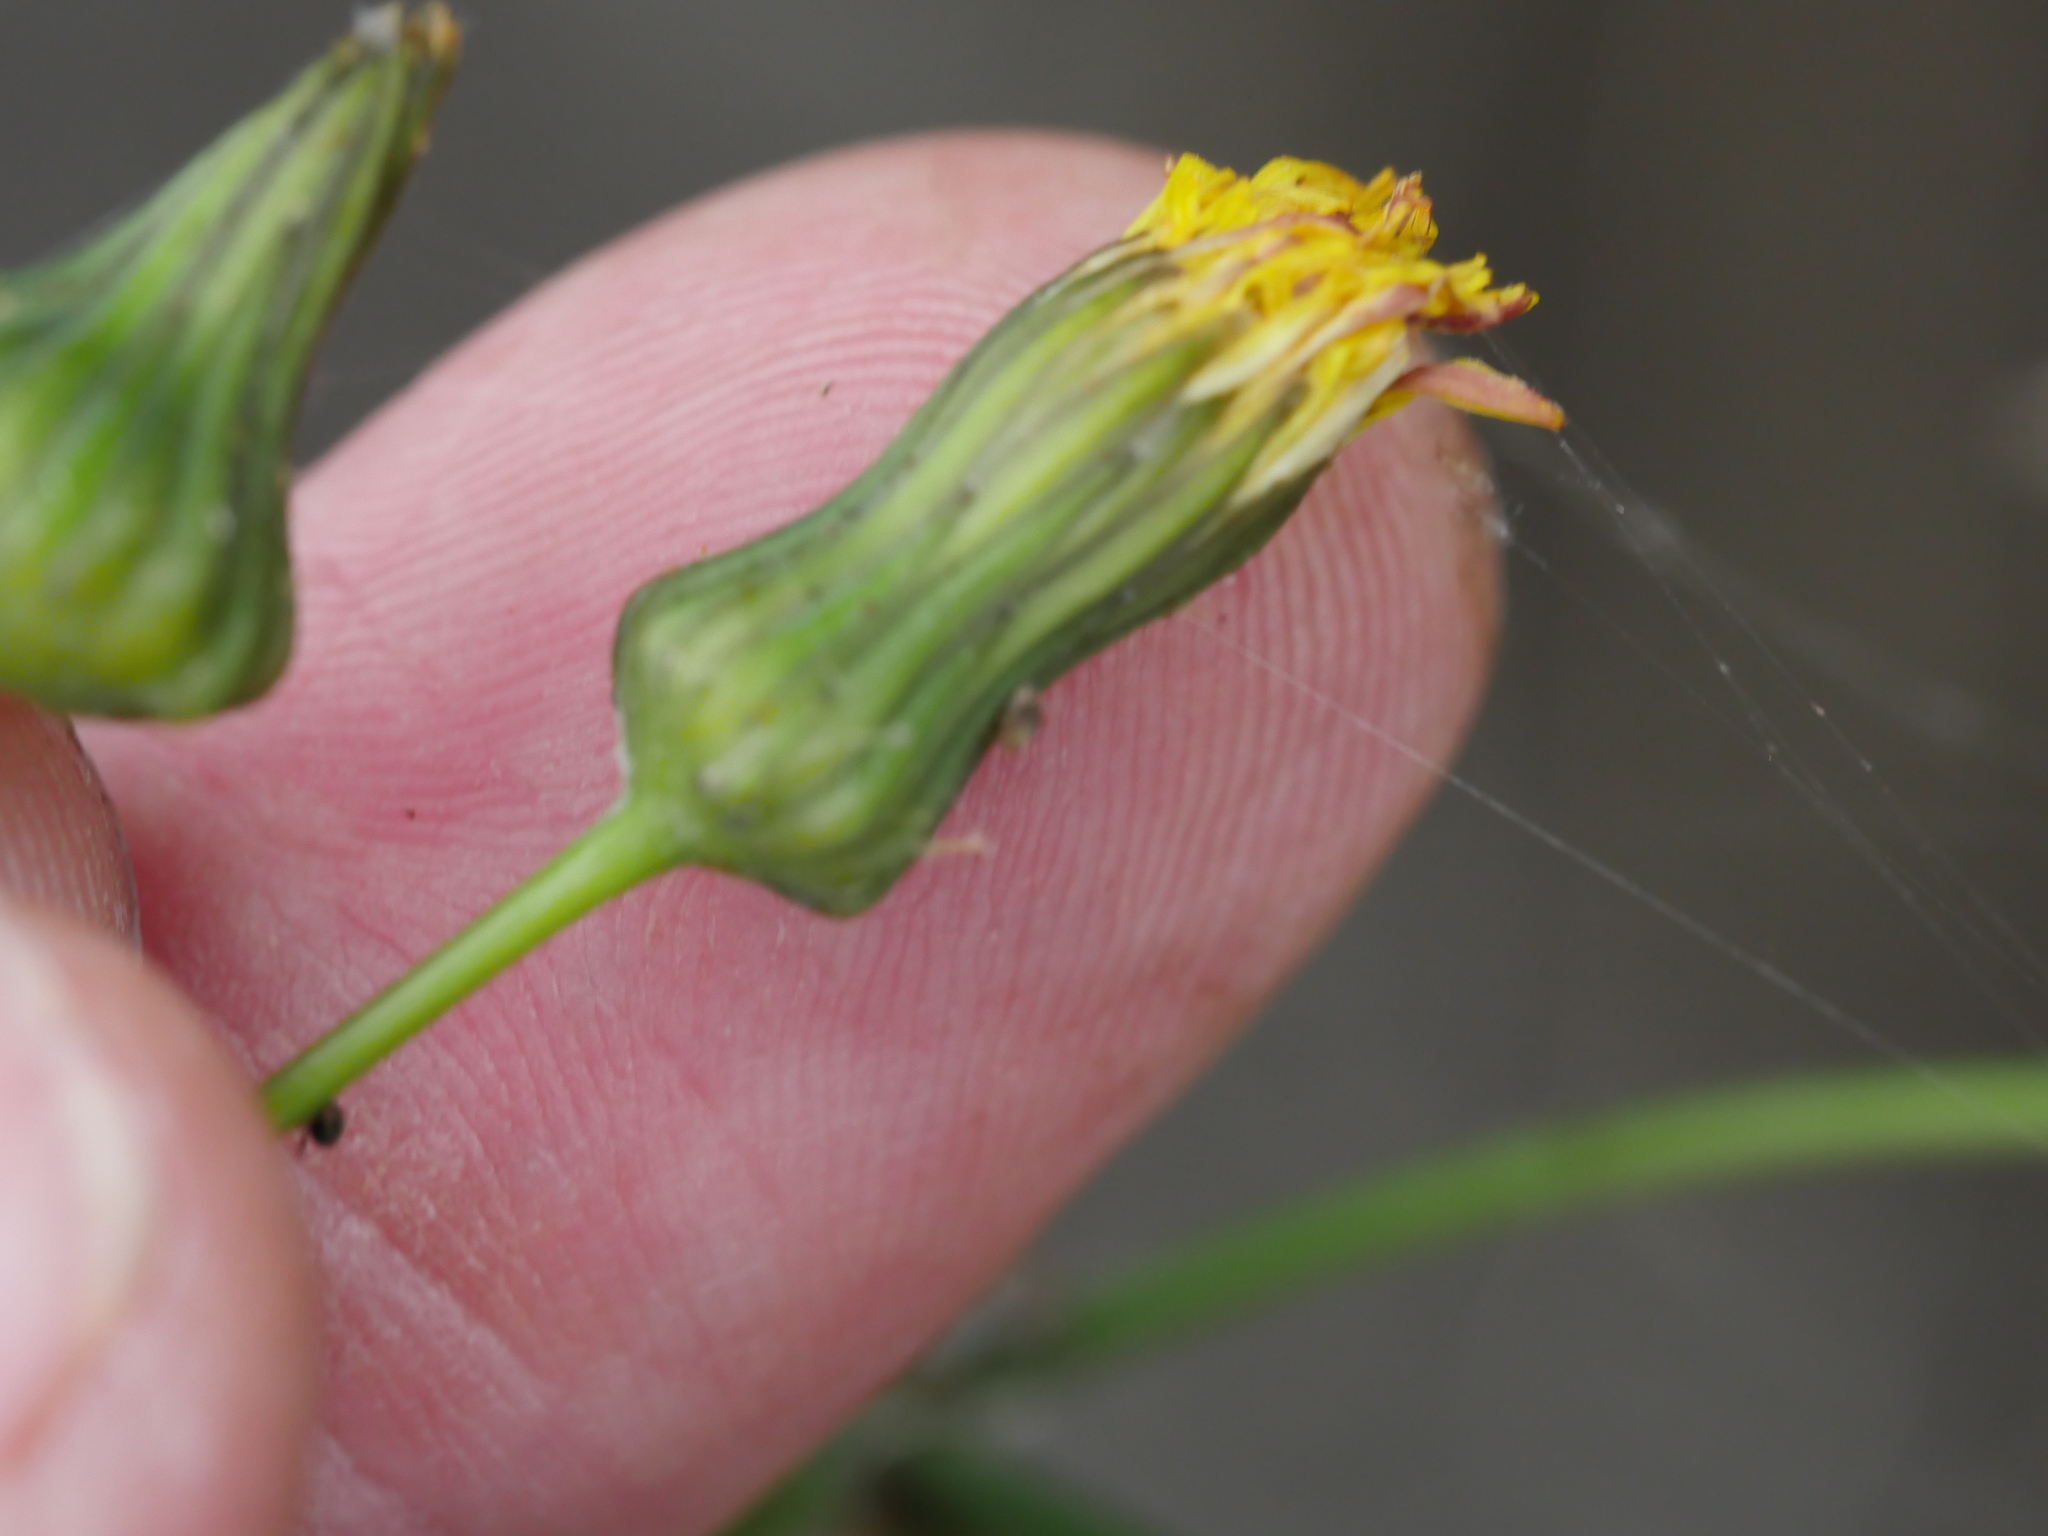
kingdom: Plantae
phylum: Tracheophyta
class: Magnoliopsida
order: Asterales
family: Asteraceae
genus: Sonchus
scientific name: Sonchus oleraceus
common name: Common sowthistle
